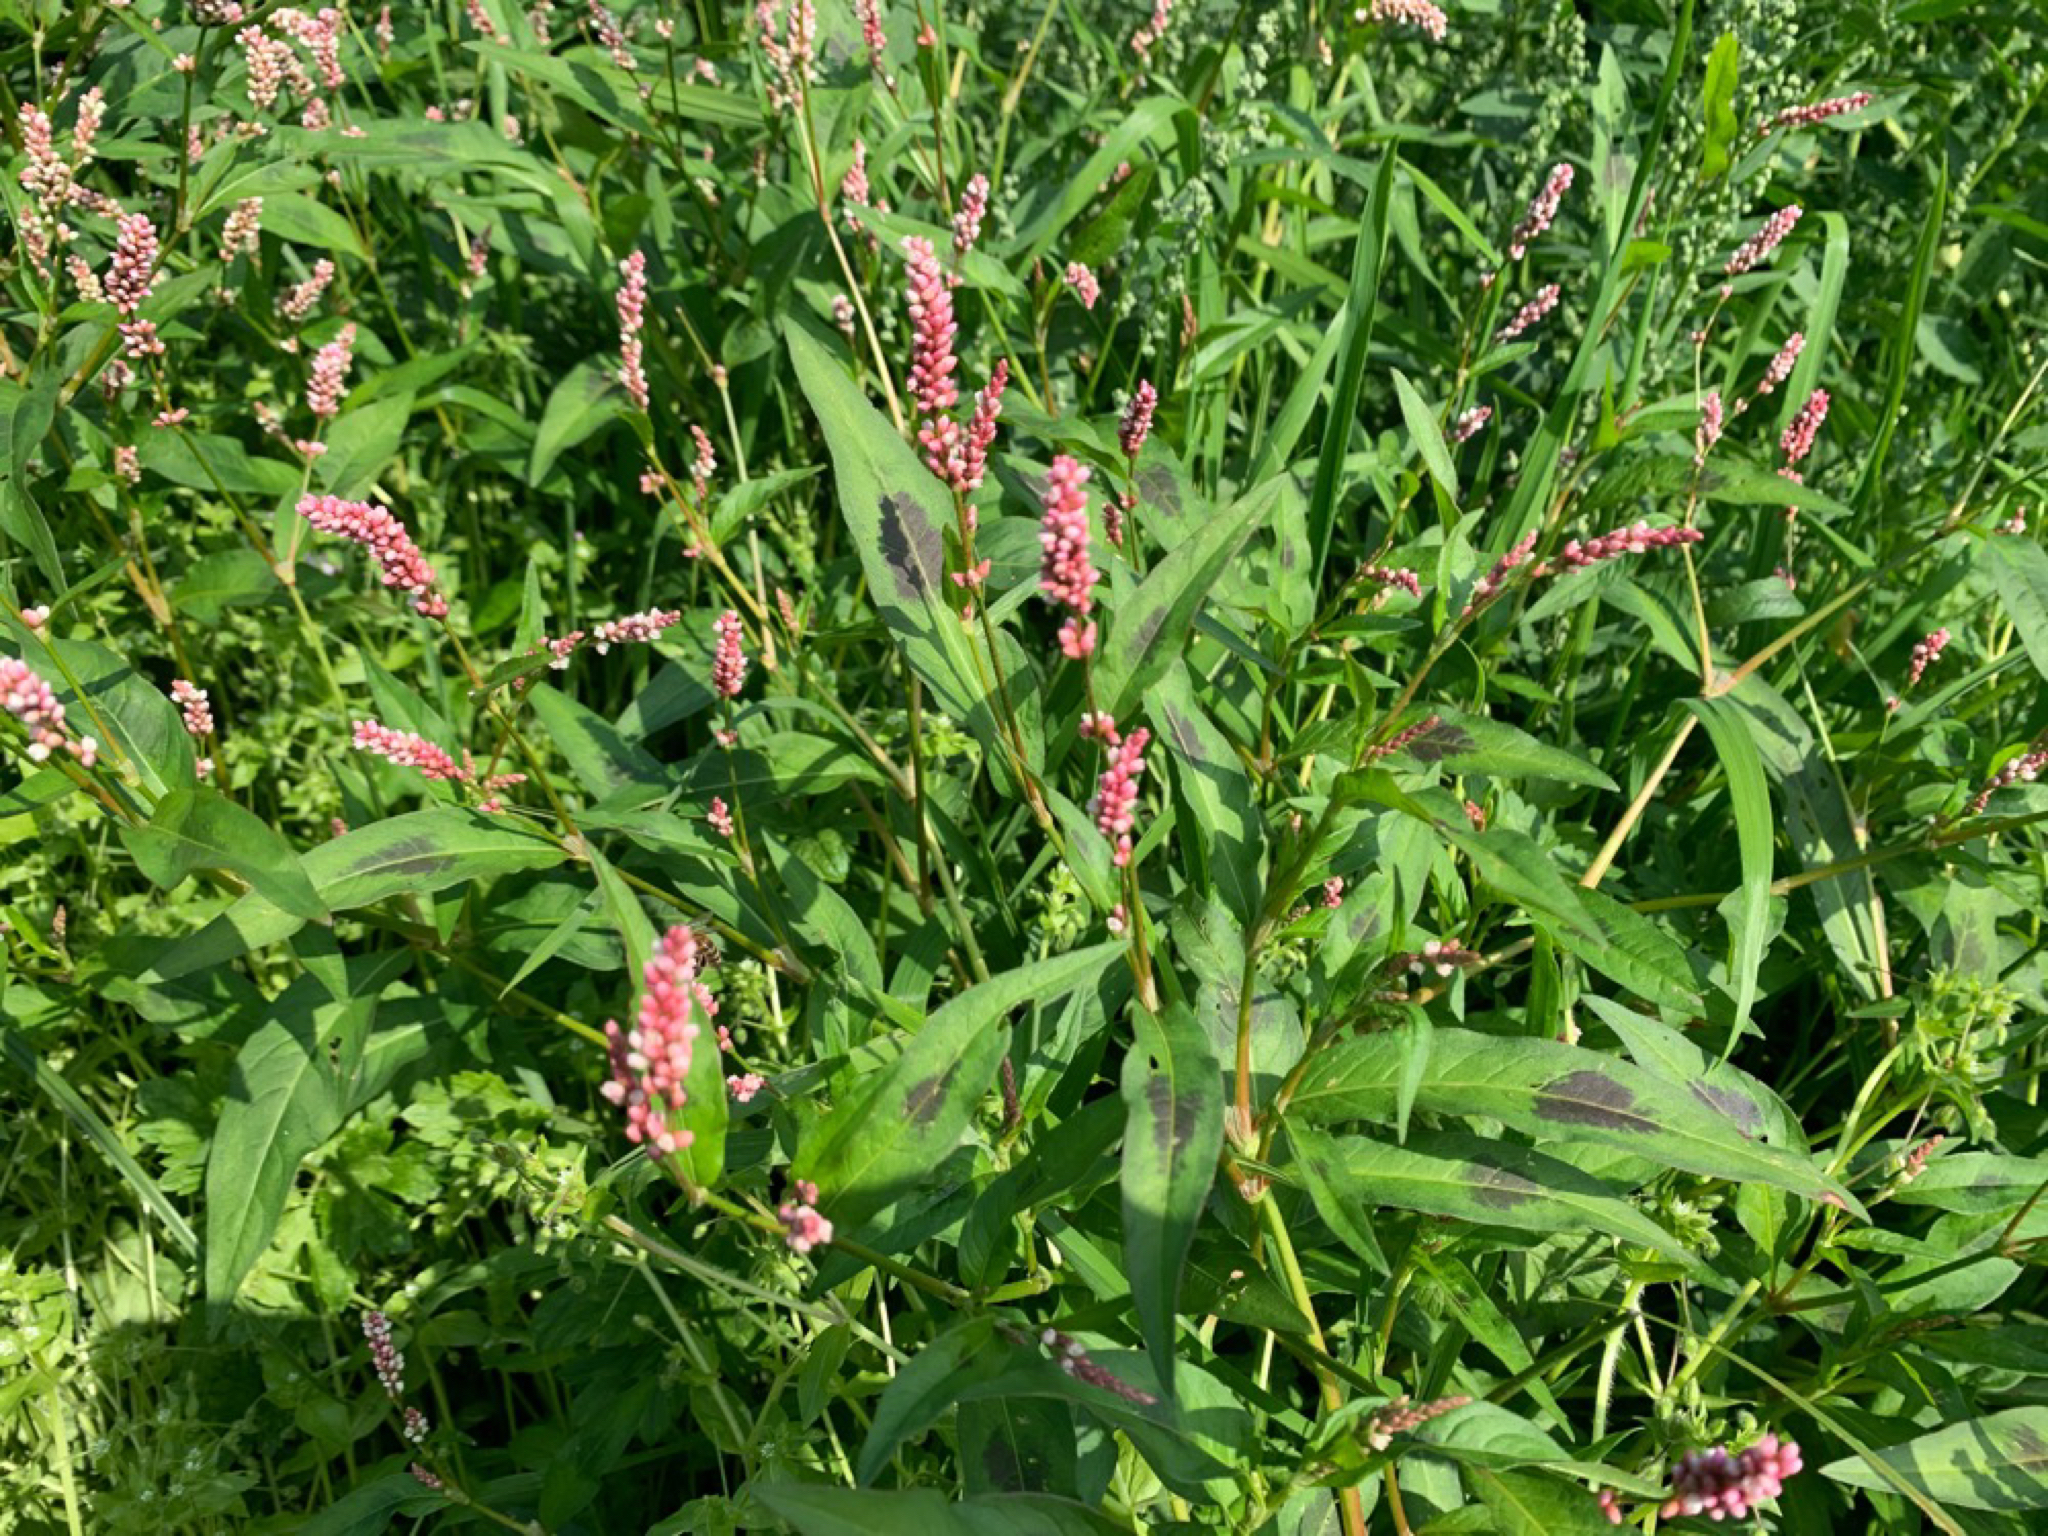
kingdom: Plantae
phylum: Tracheophyta
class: Magnoliopsida
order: Caryophyllales
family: Polygonaceae
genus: Persicaria
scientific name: Persicaria maculosa
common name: Redshank
